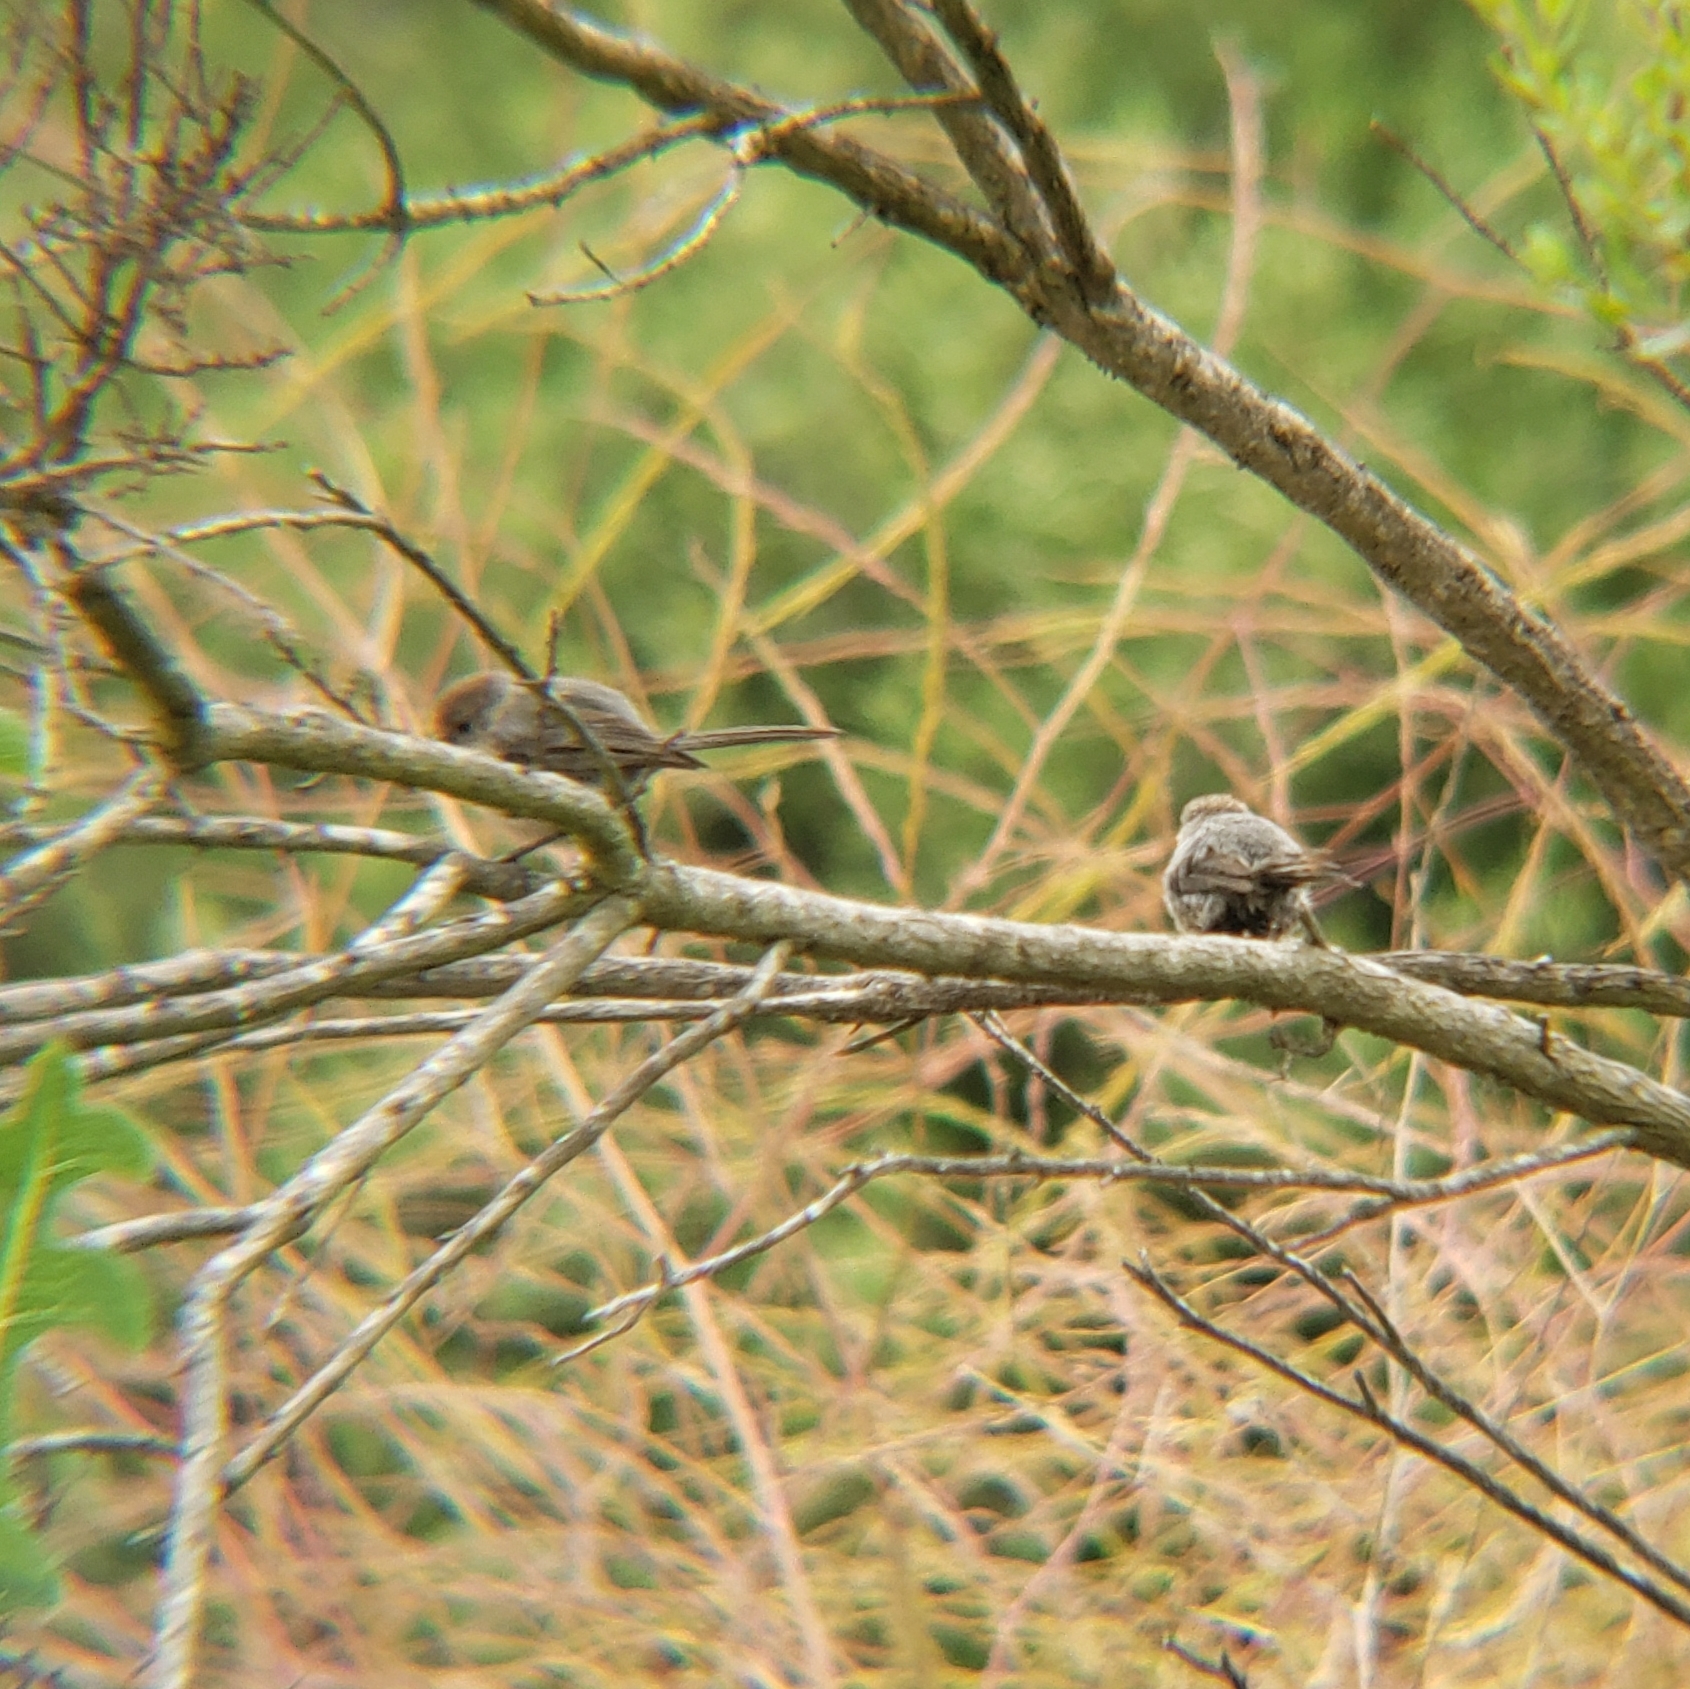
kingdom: Animalia
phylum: Chordata
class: Aves
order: Passeriformes
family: Aegithalidae
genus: Psaltriparus
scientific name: Psaltriparus minimus
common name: American bushtit
